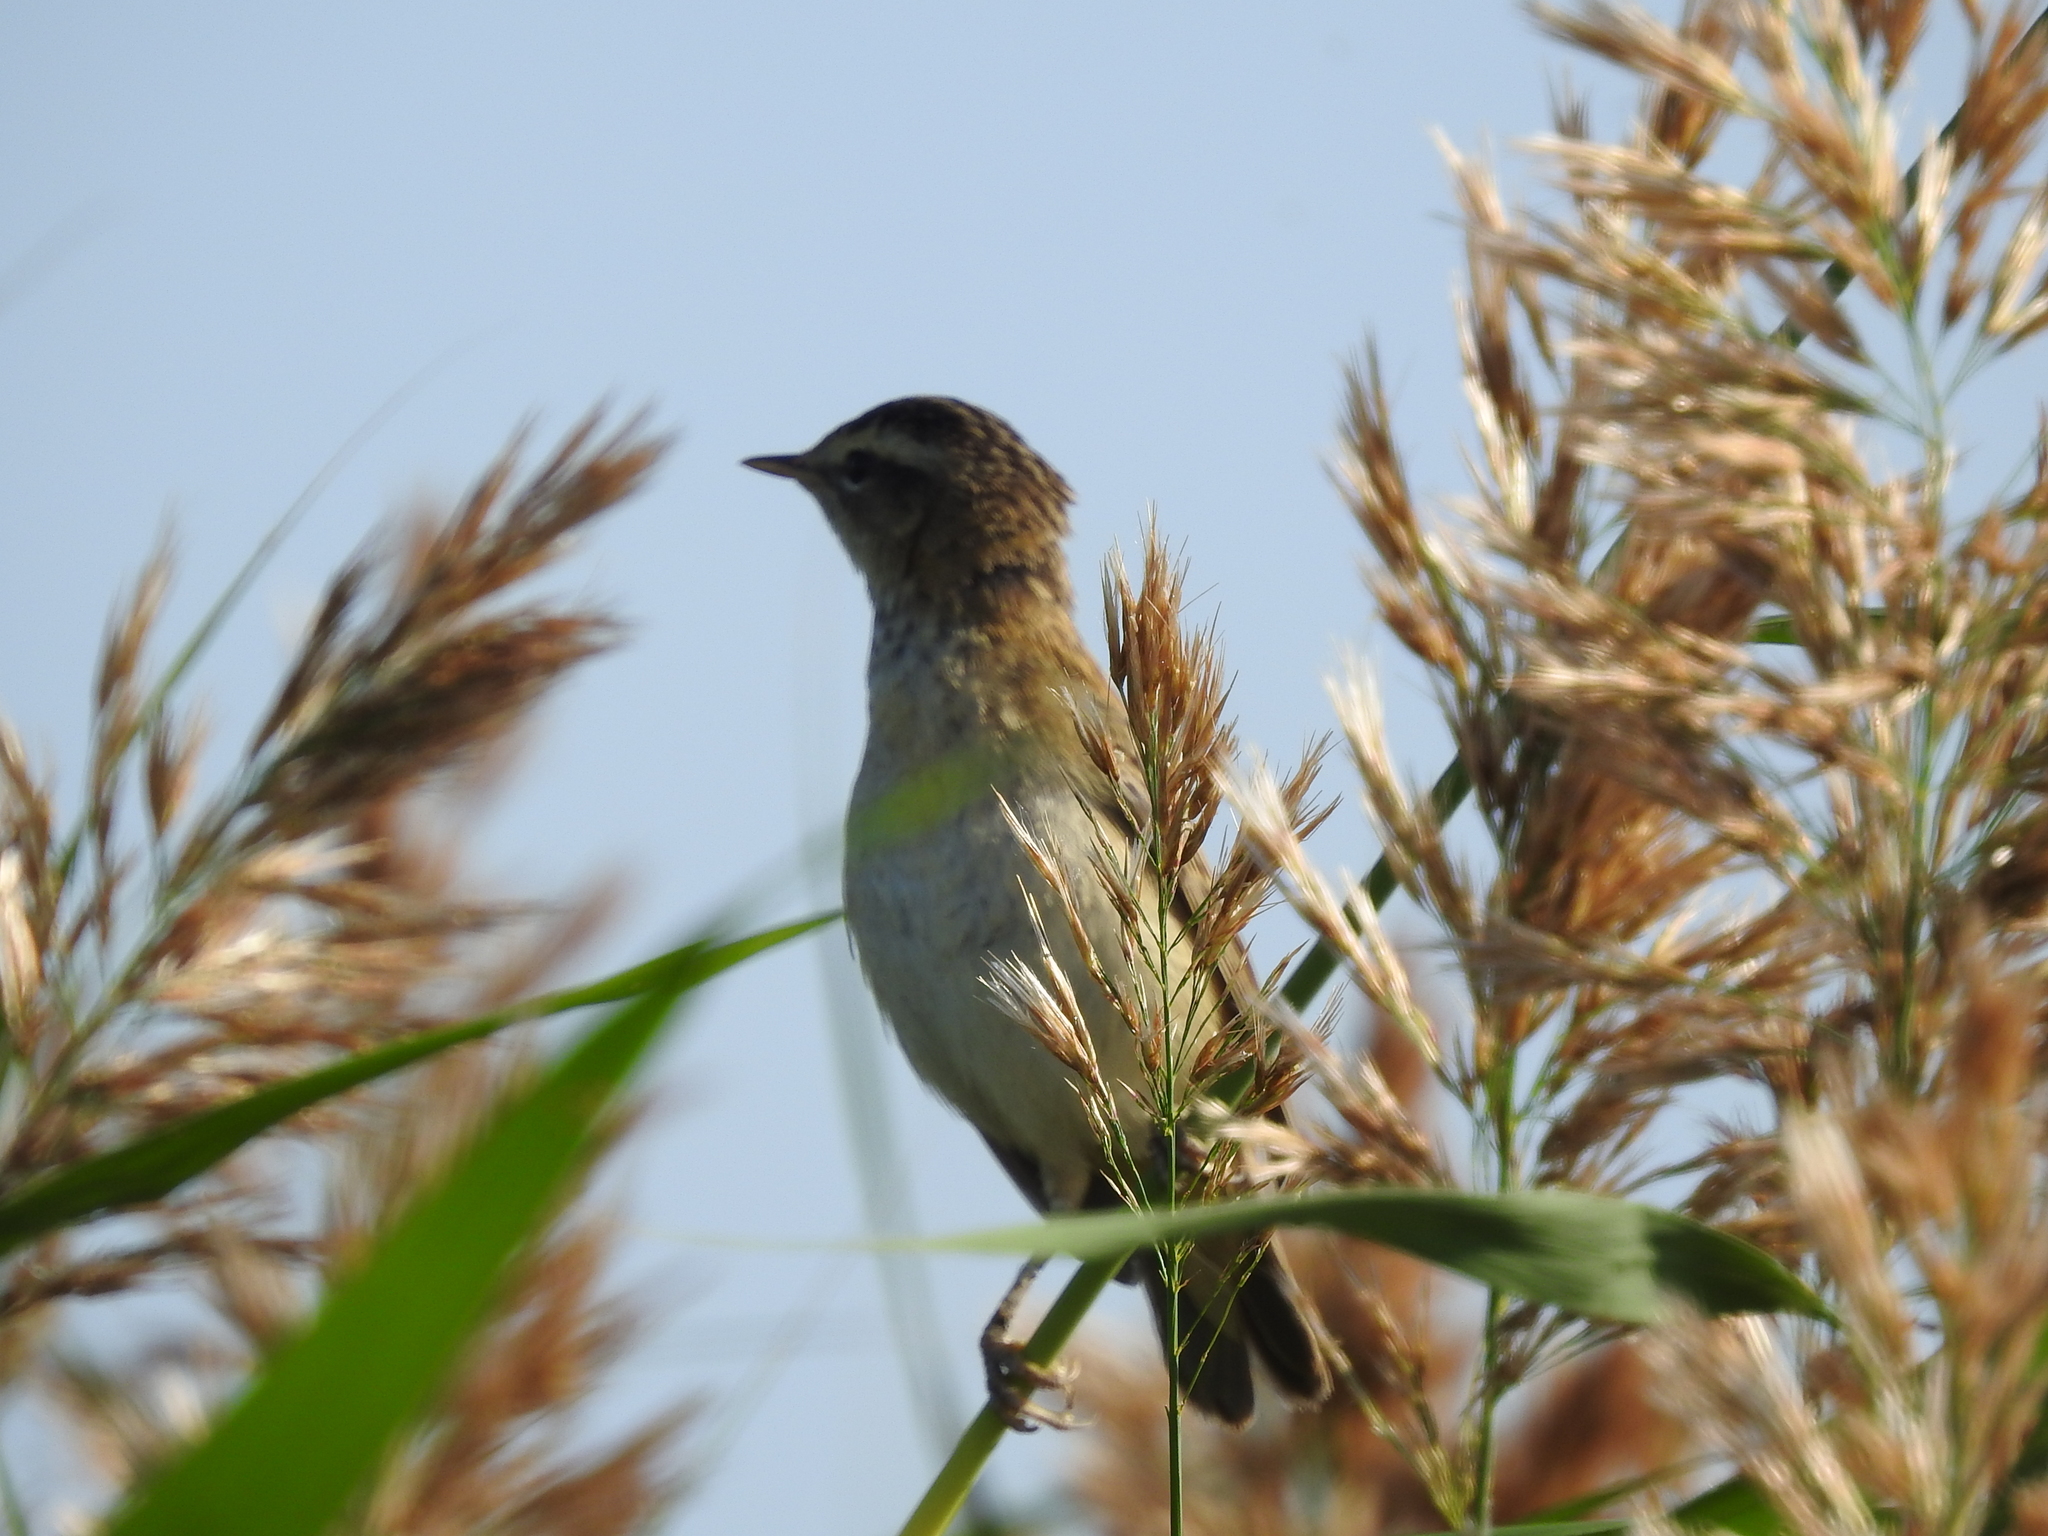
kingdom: Animalia
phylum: Chordata
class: Aves
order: Passeriformes
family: Acrocephalidae
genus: Acrocephalus
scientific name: Acrocephalus schoenobaenus
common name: Sedge warbler
